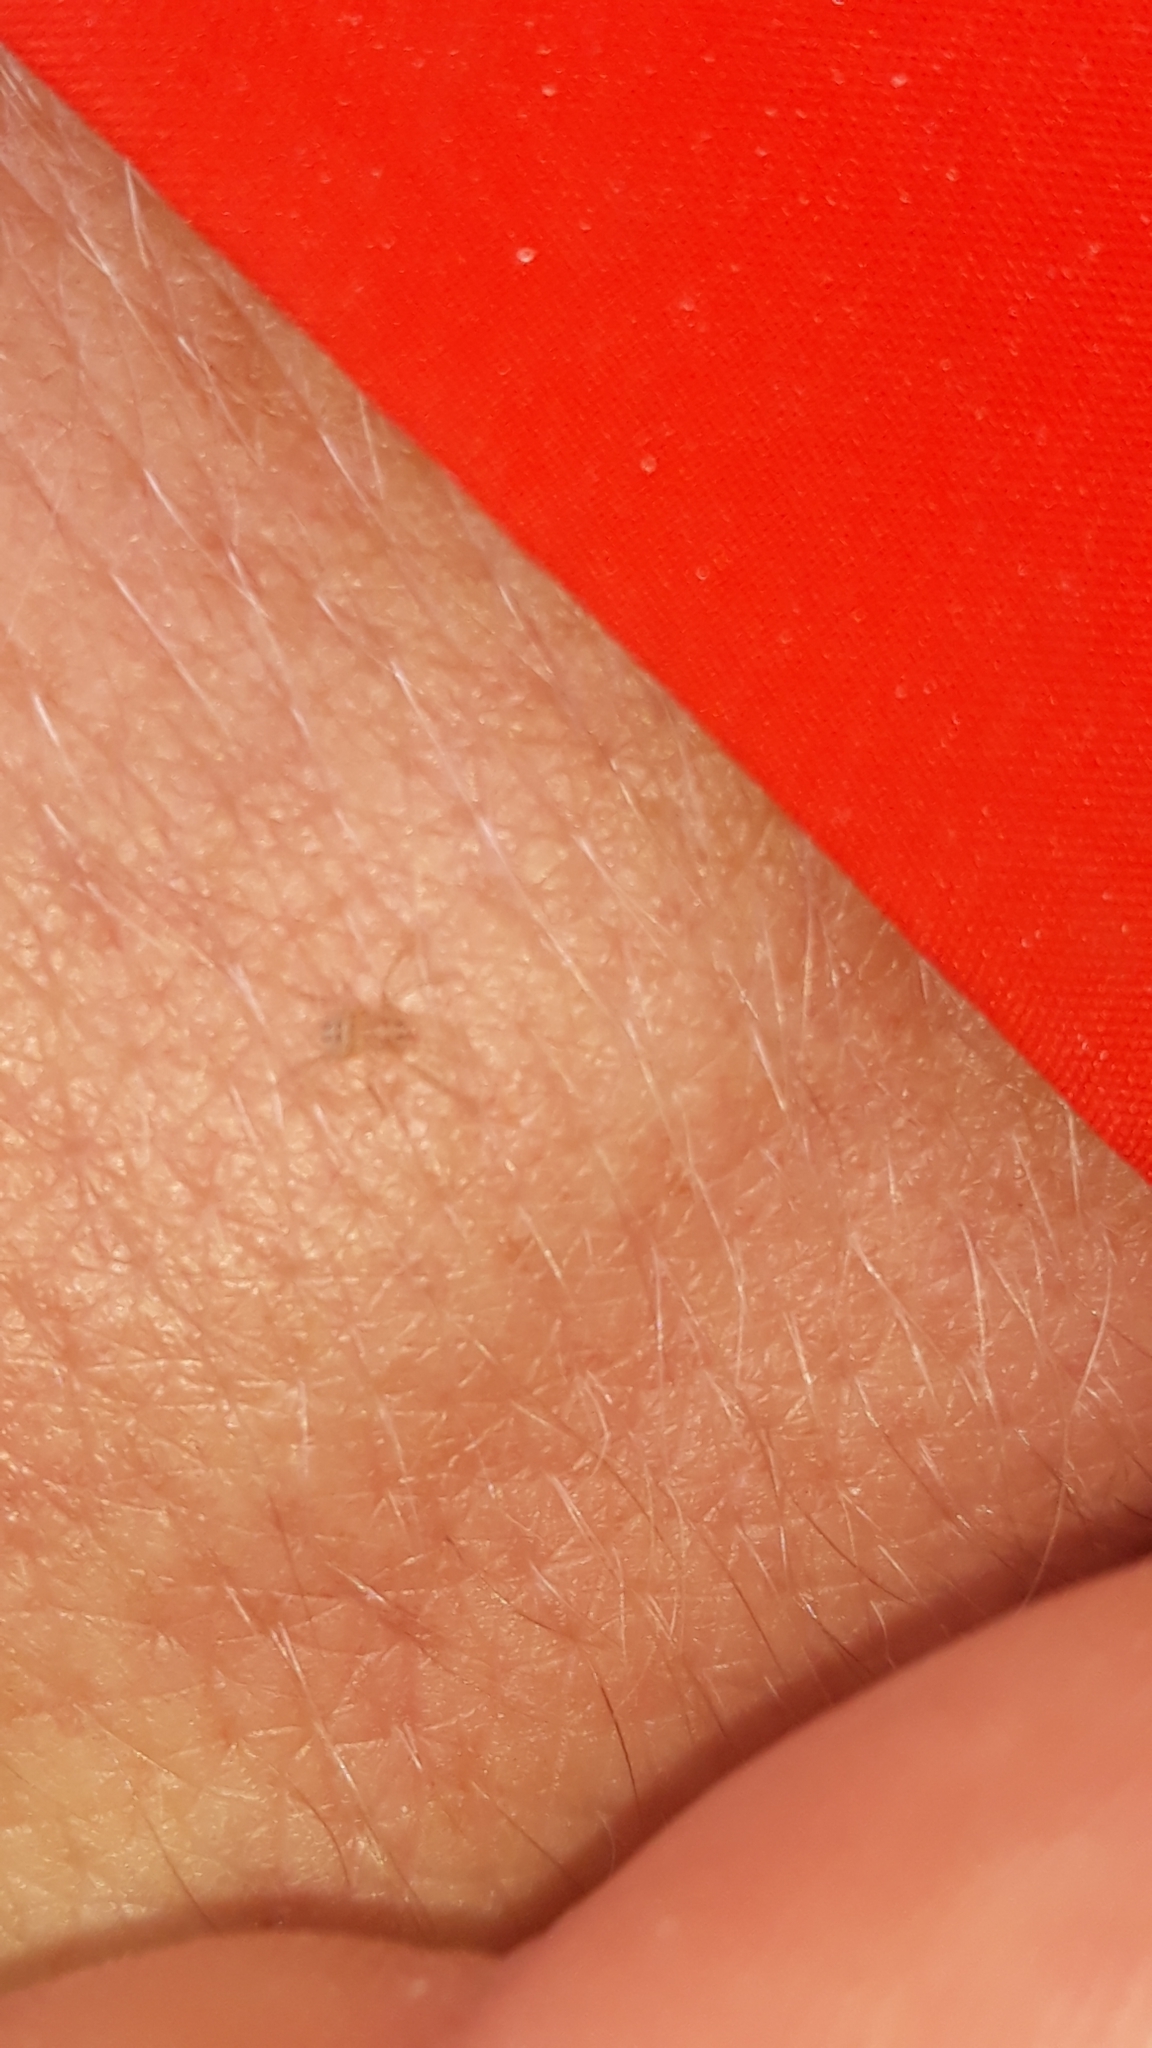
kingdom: Animalia
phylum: Arthropoda
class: Arachnida
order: Araneae
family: Scytodidae
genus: Scytodes
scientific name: Scytodes thoracica
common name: Spitting spider
